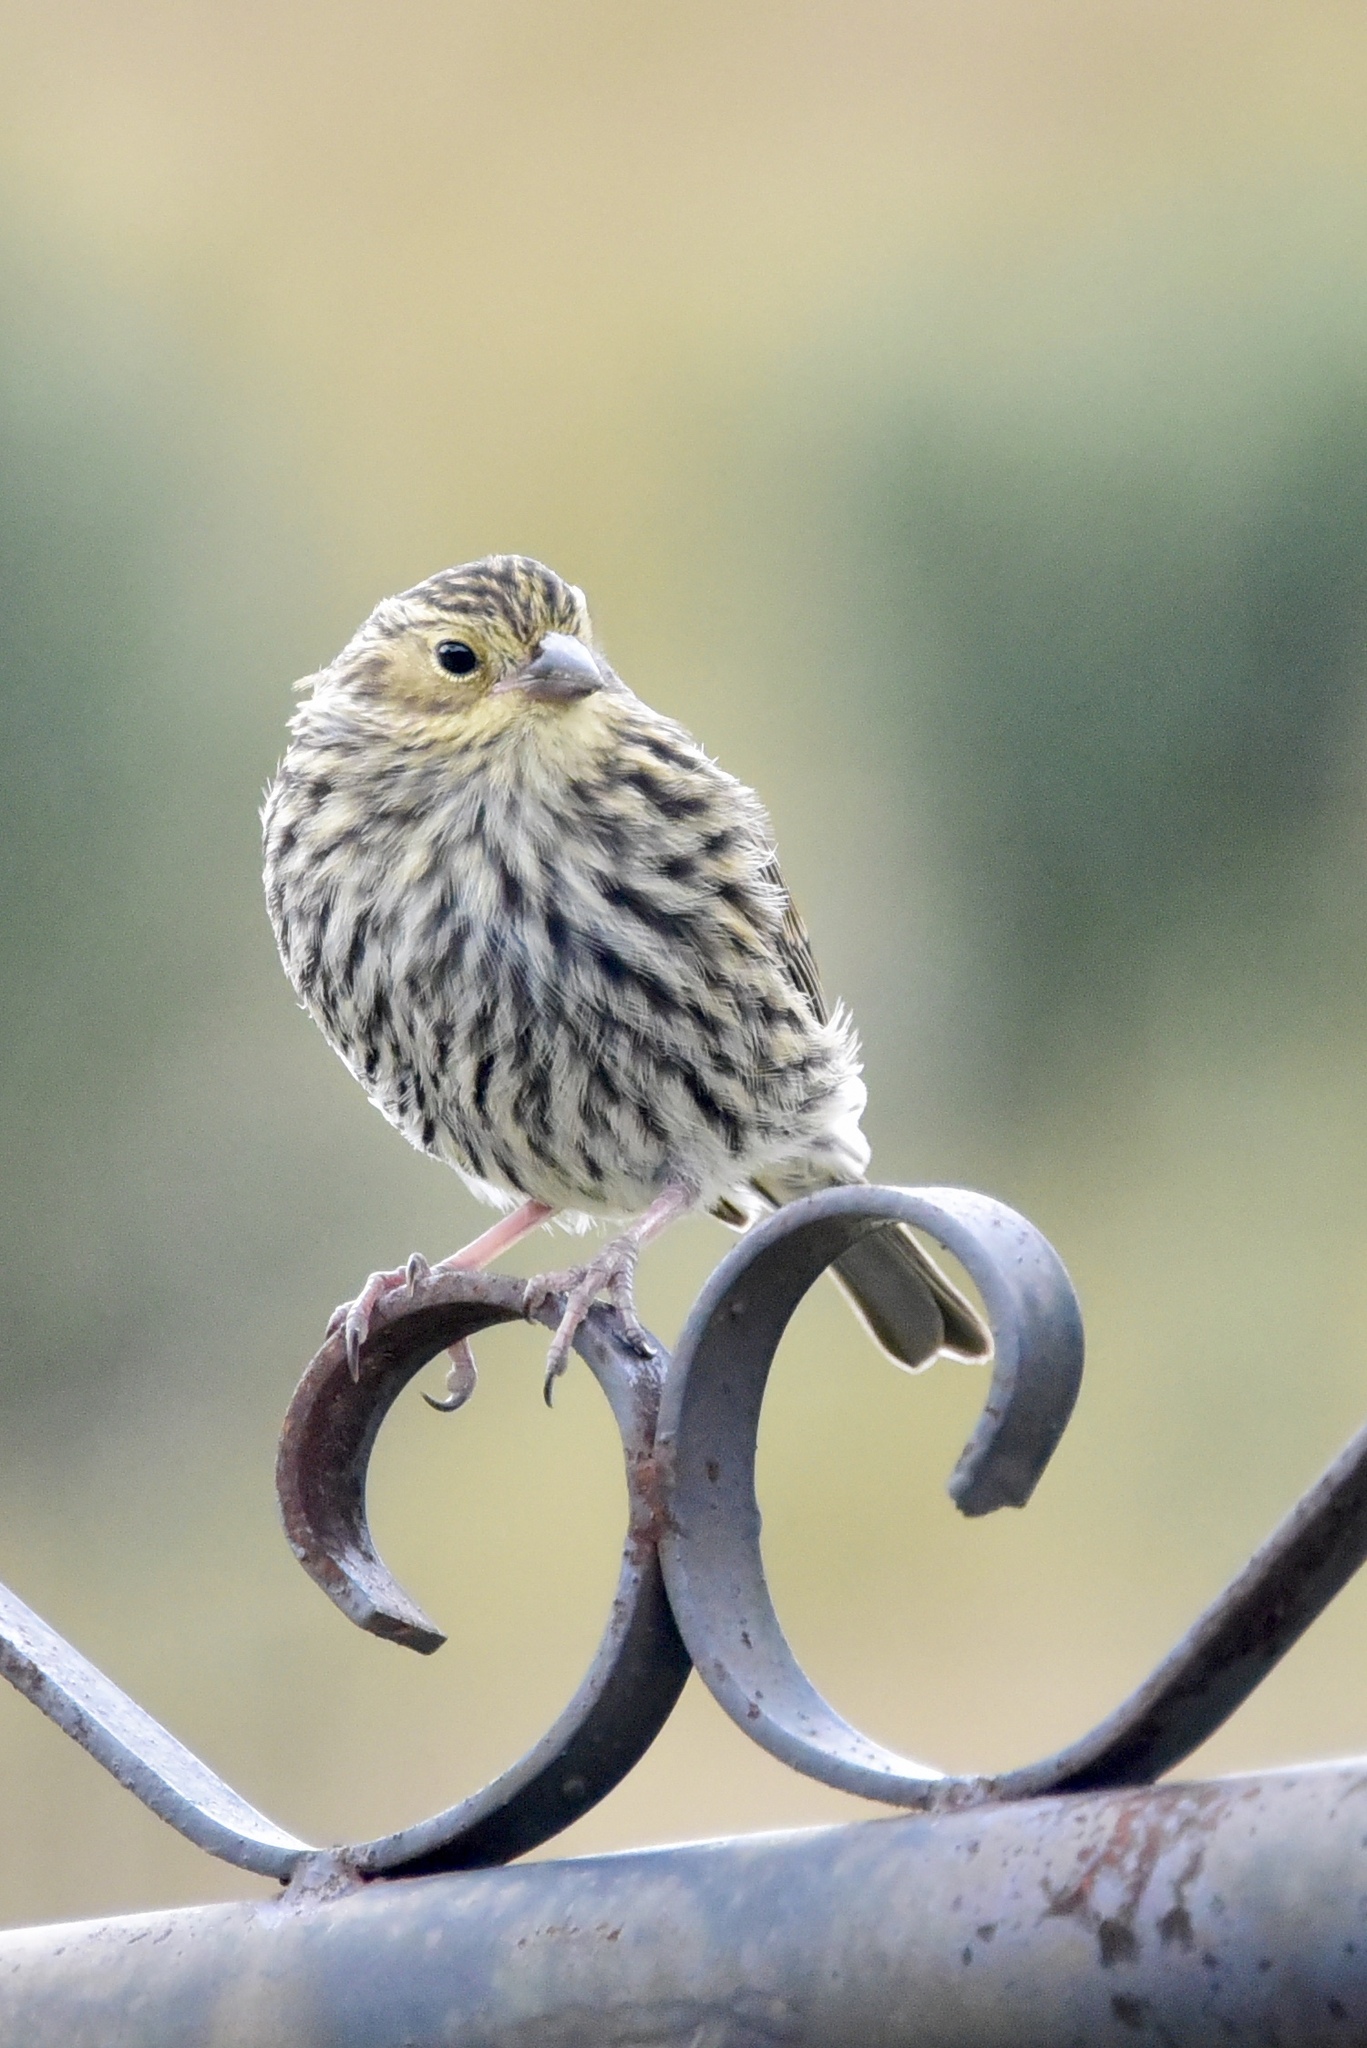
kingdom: Animalia
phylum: Chordata
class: Aves
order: Passeriformes
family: Thraupidae
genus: Geospizopsis
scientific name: Geospizopsis unicolor
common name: Plumbeous sierra-finch
